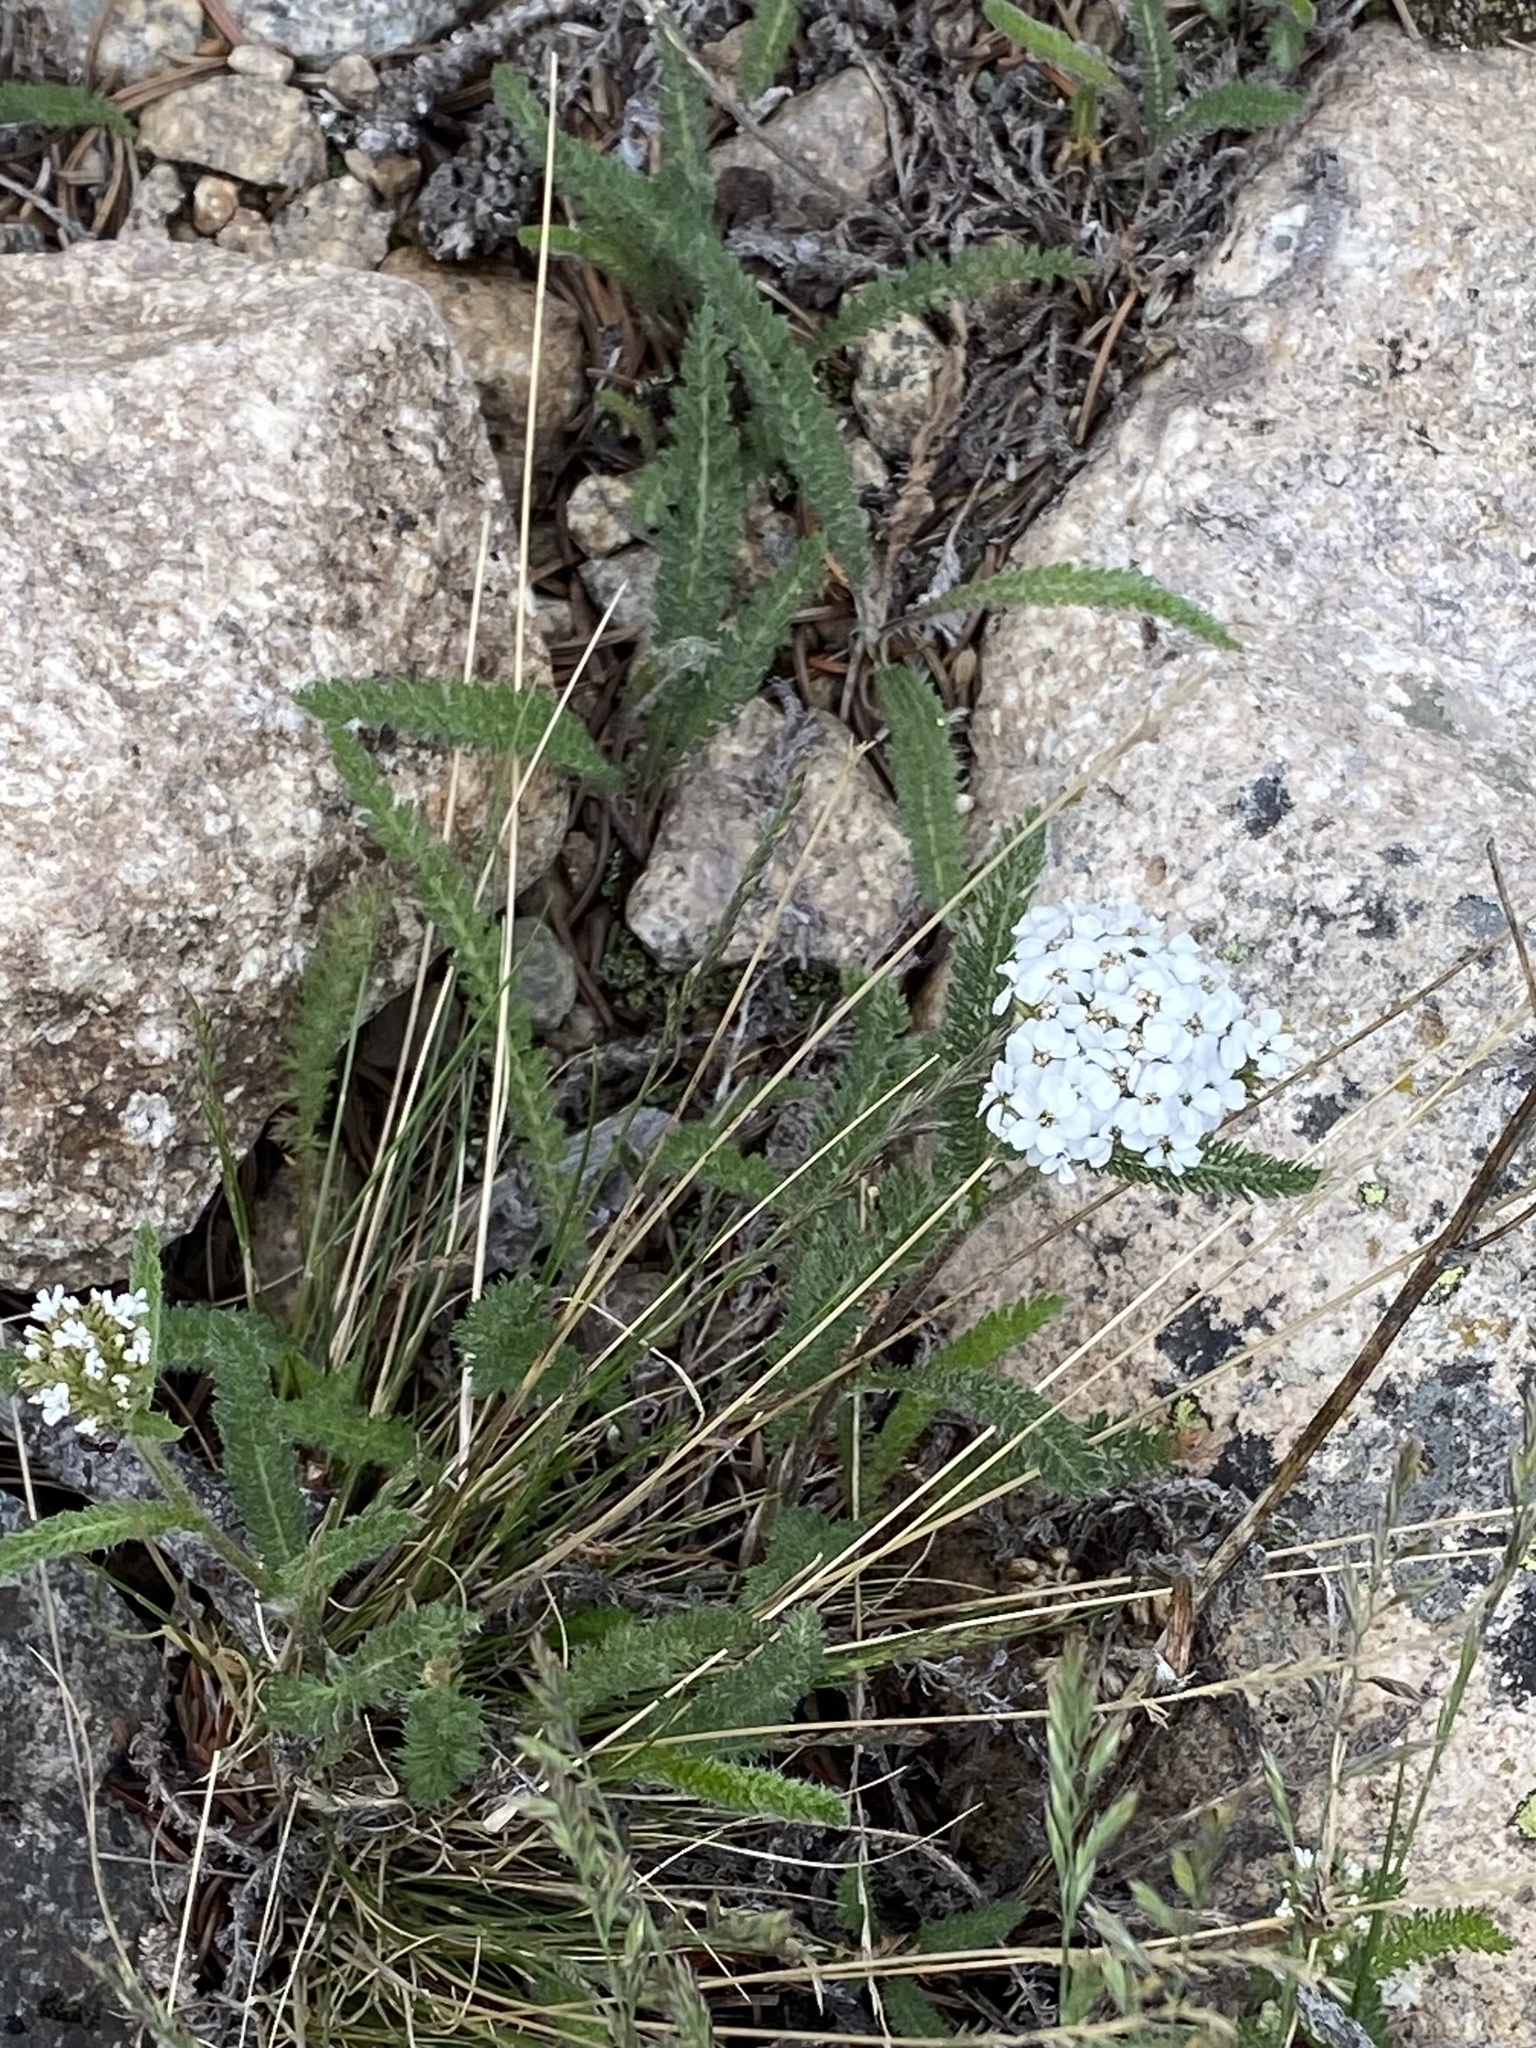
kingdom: Plantae
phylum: Tracheophyta
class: Magnoliopsida
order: Asterales
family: Asteraceae
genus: Achillea
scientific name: Achillea millefolium
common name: Yarrow
